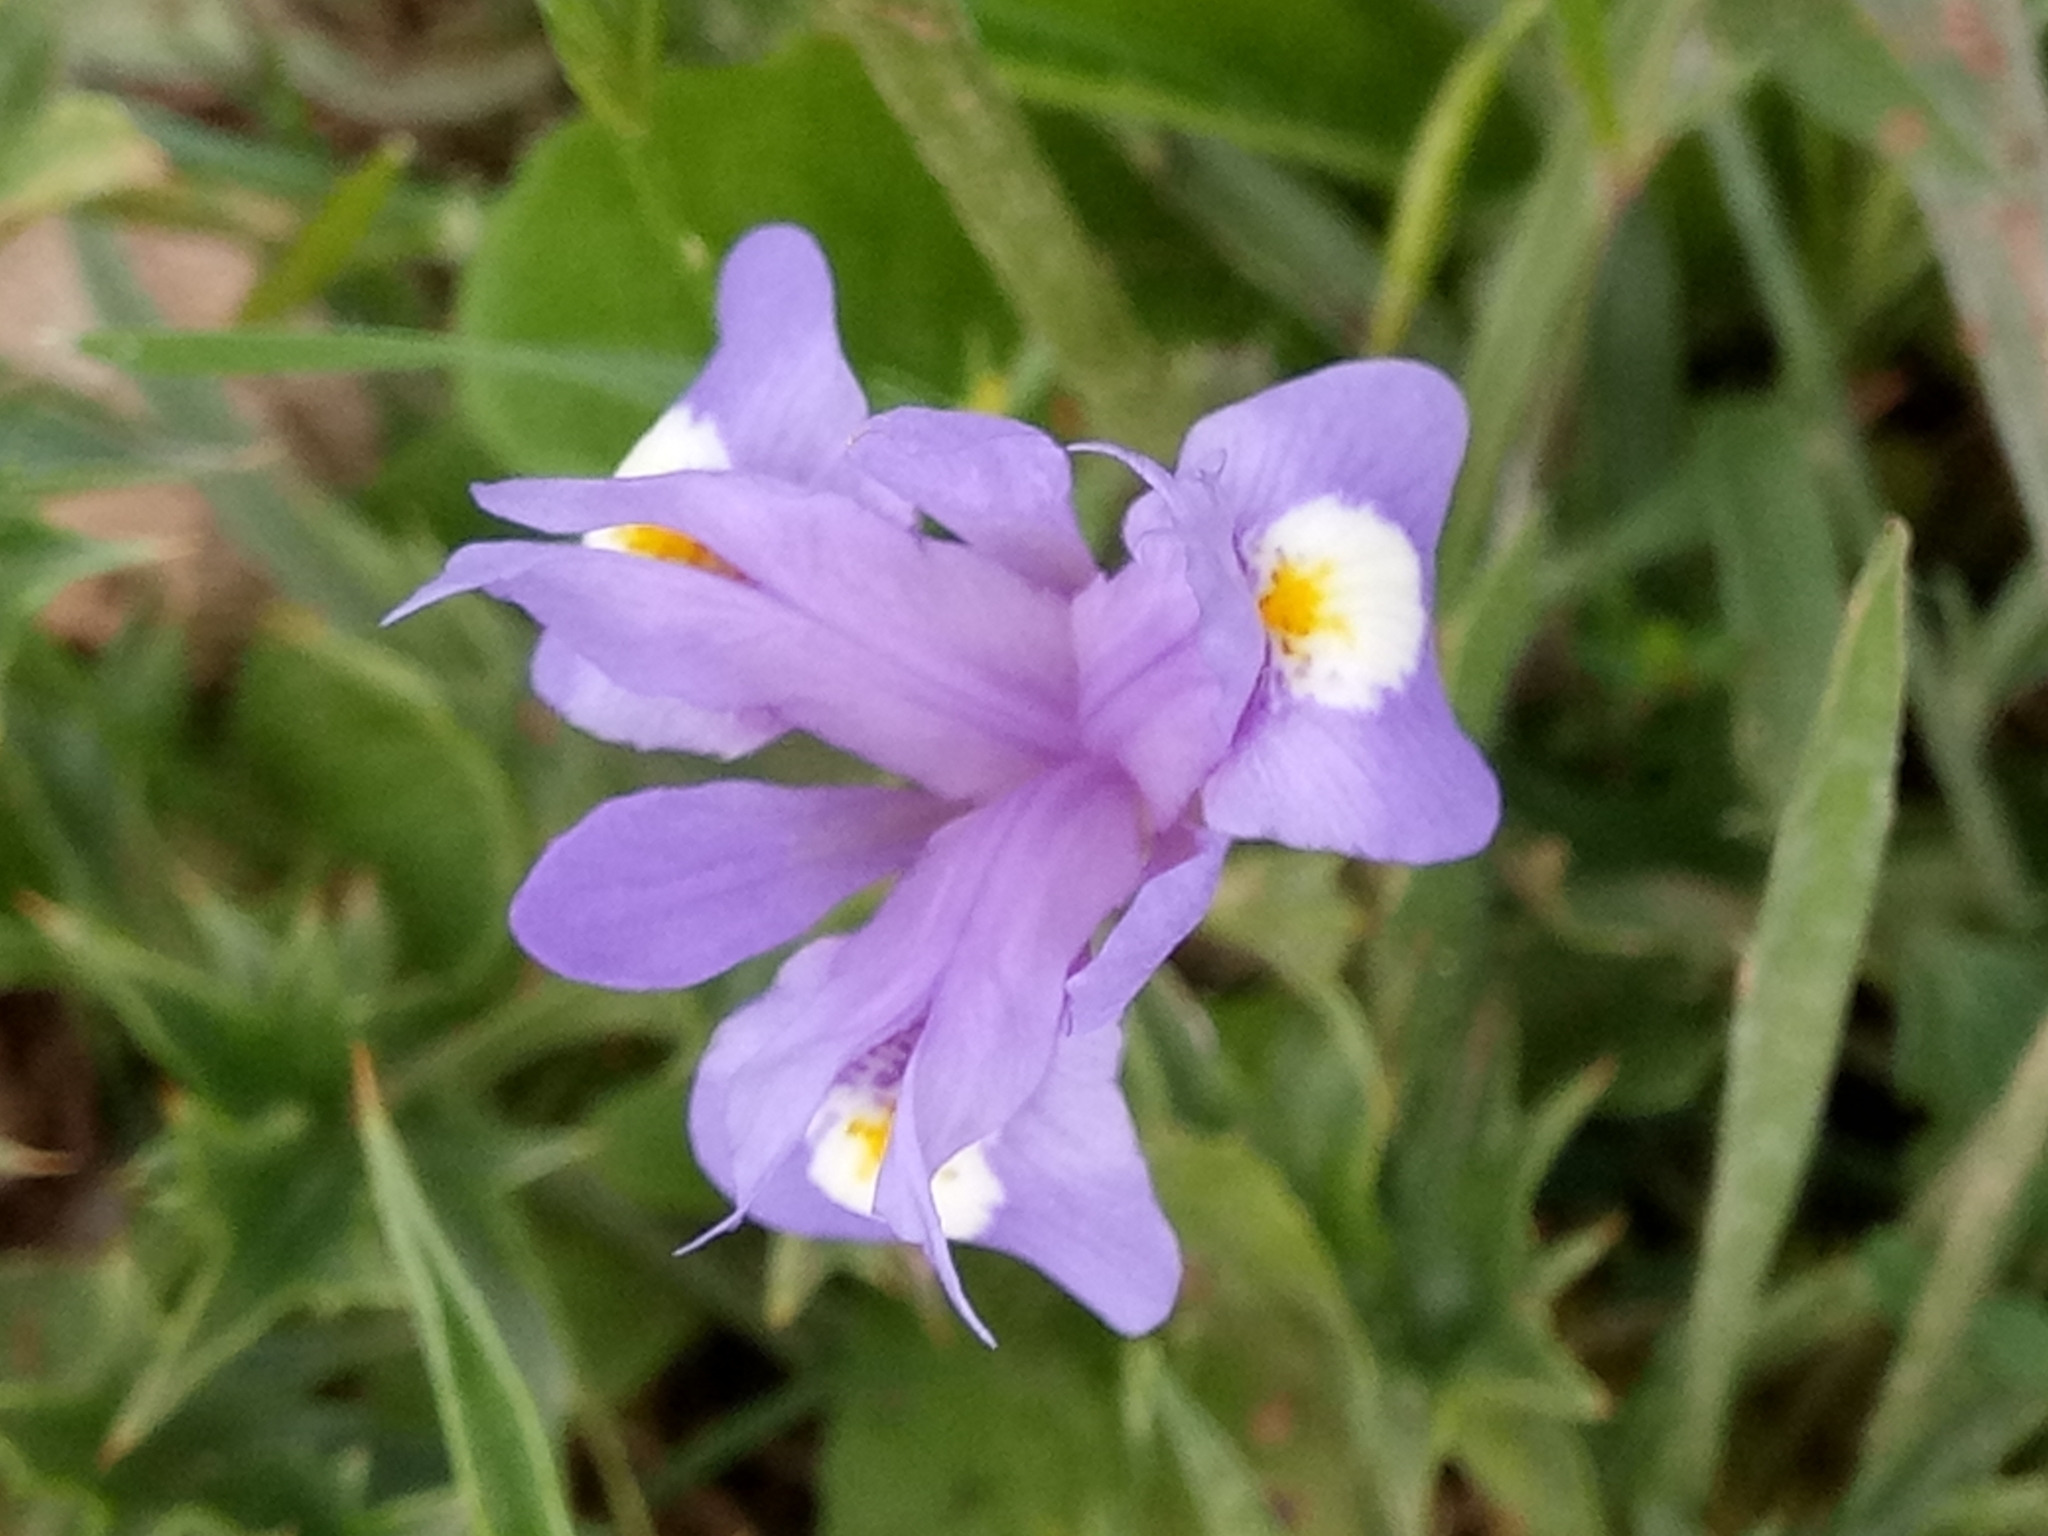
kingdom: Plantae
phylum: Tracheophyta
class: Liliopsida
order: Asparagales
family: Iridaceae
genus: Moraea
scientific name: Moraea sisyrinchium
